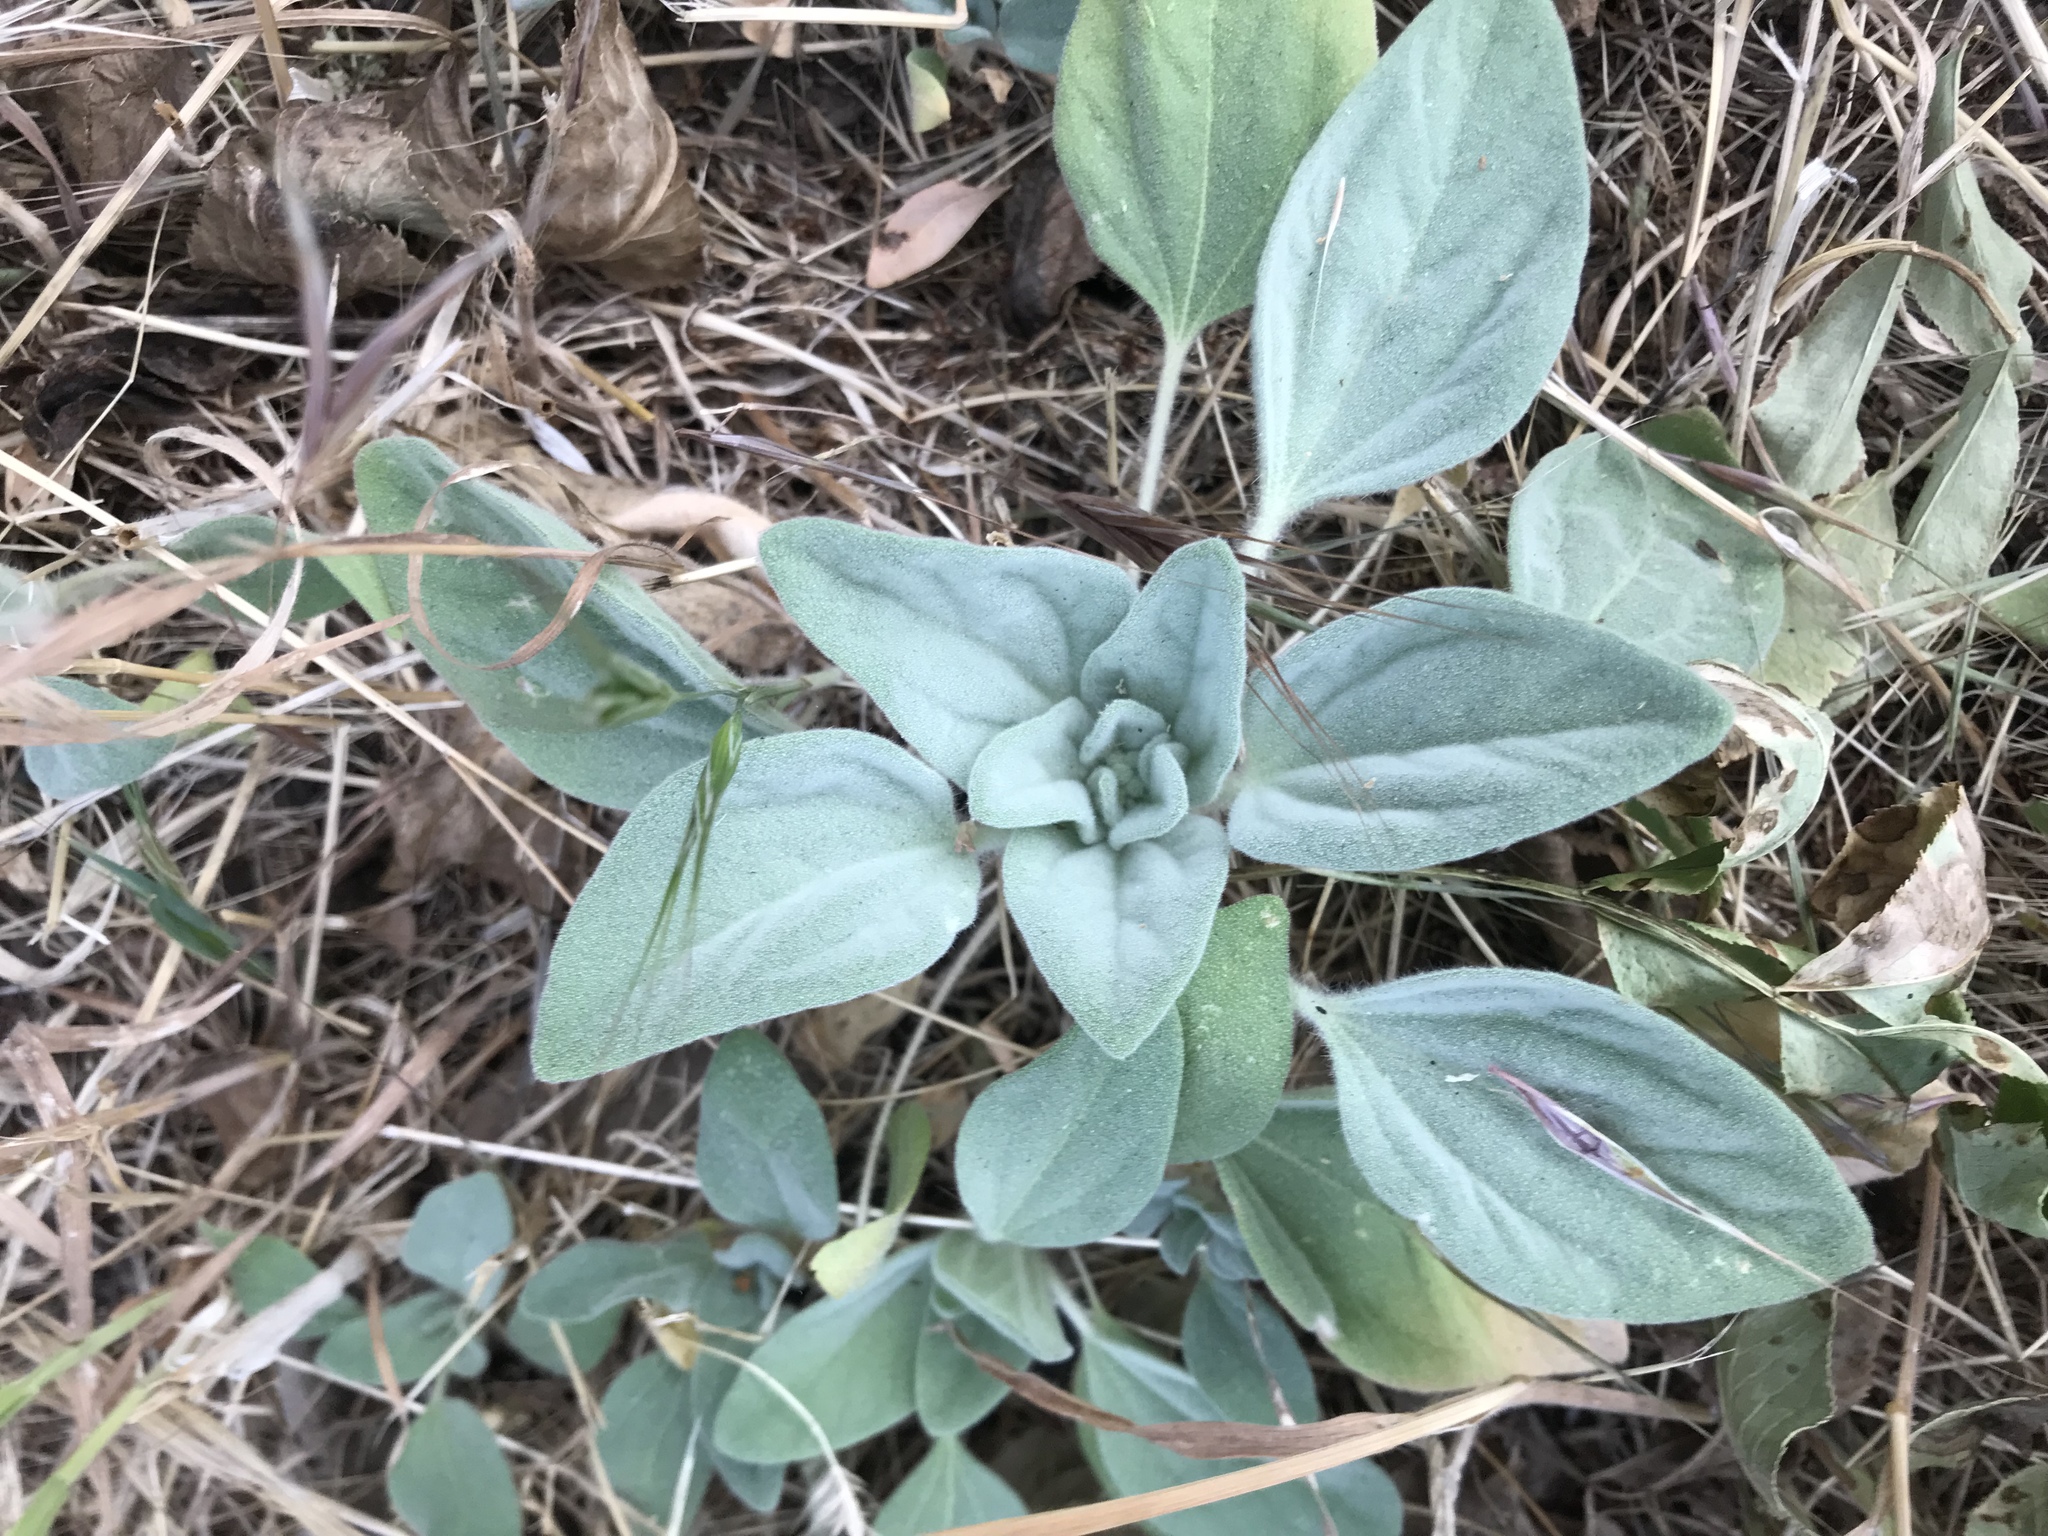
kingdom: Plantae
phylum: Tracheophyta
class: Magnoliopsida
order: Malpighiales
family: Euphorbiaceae
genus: Croton
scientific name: Croton setiger
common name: Dove weed
